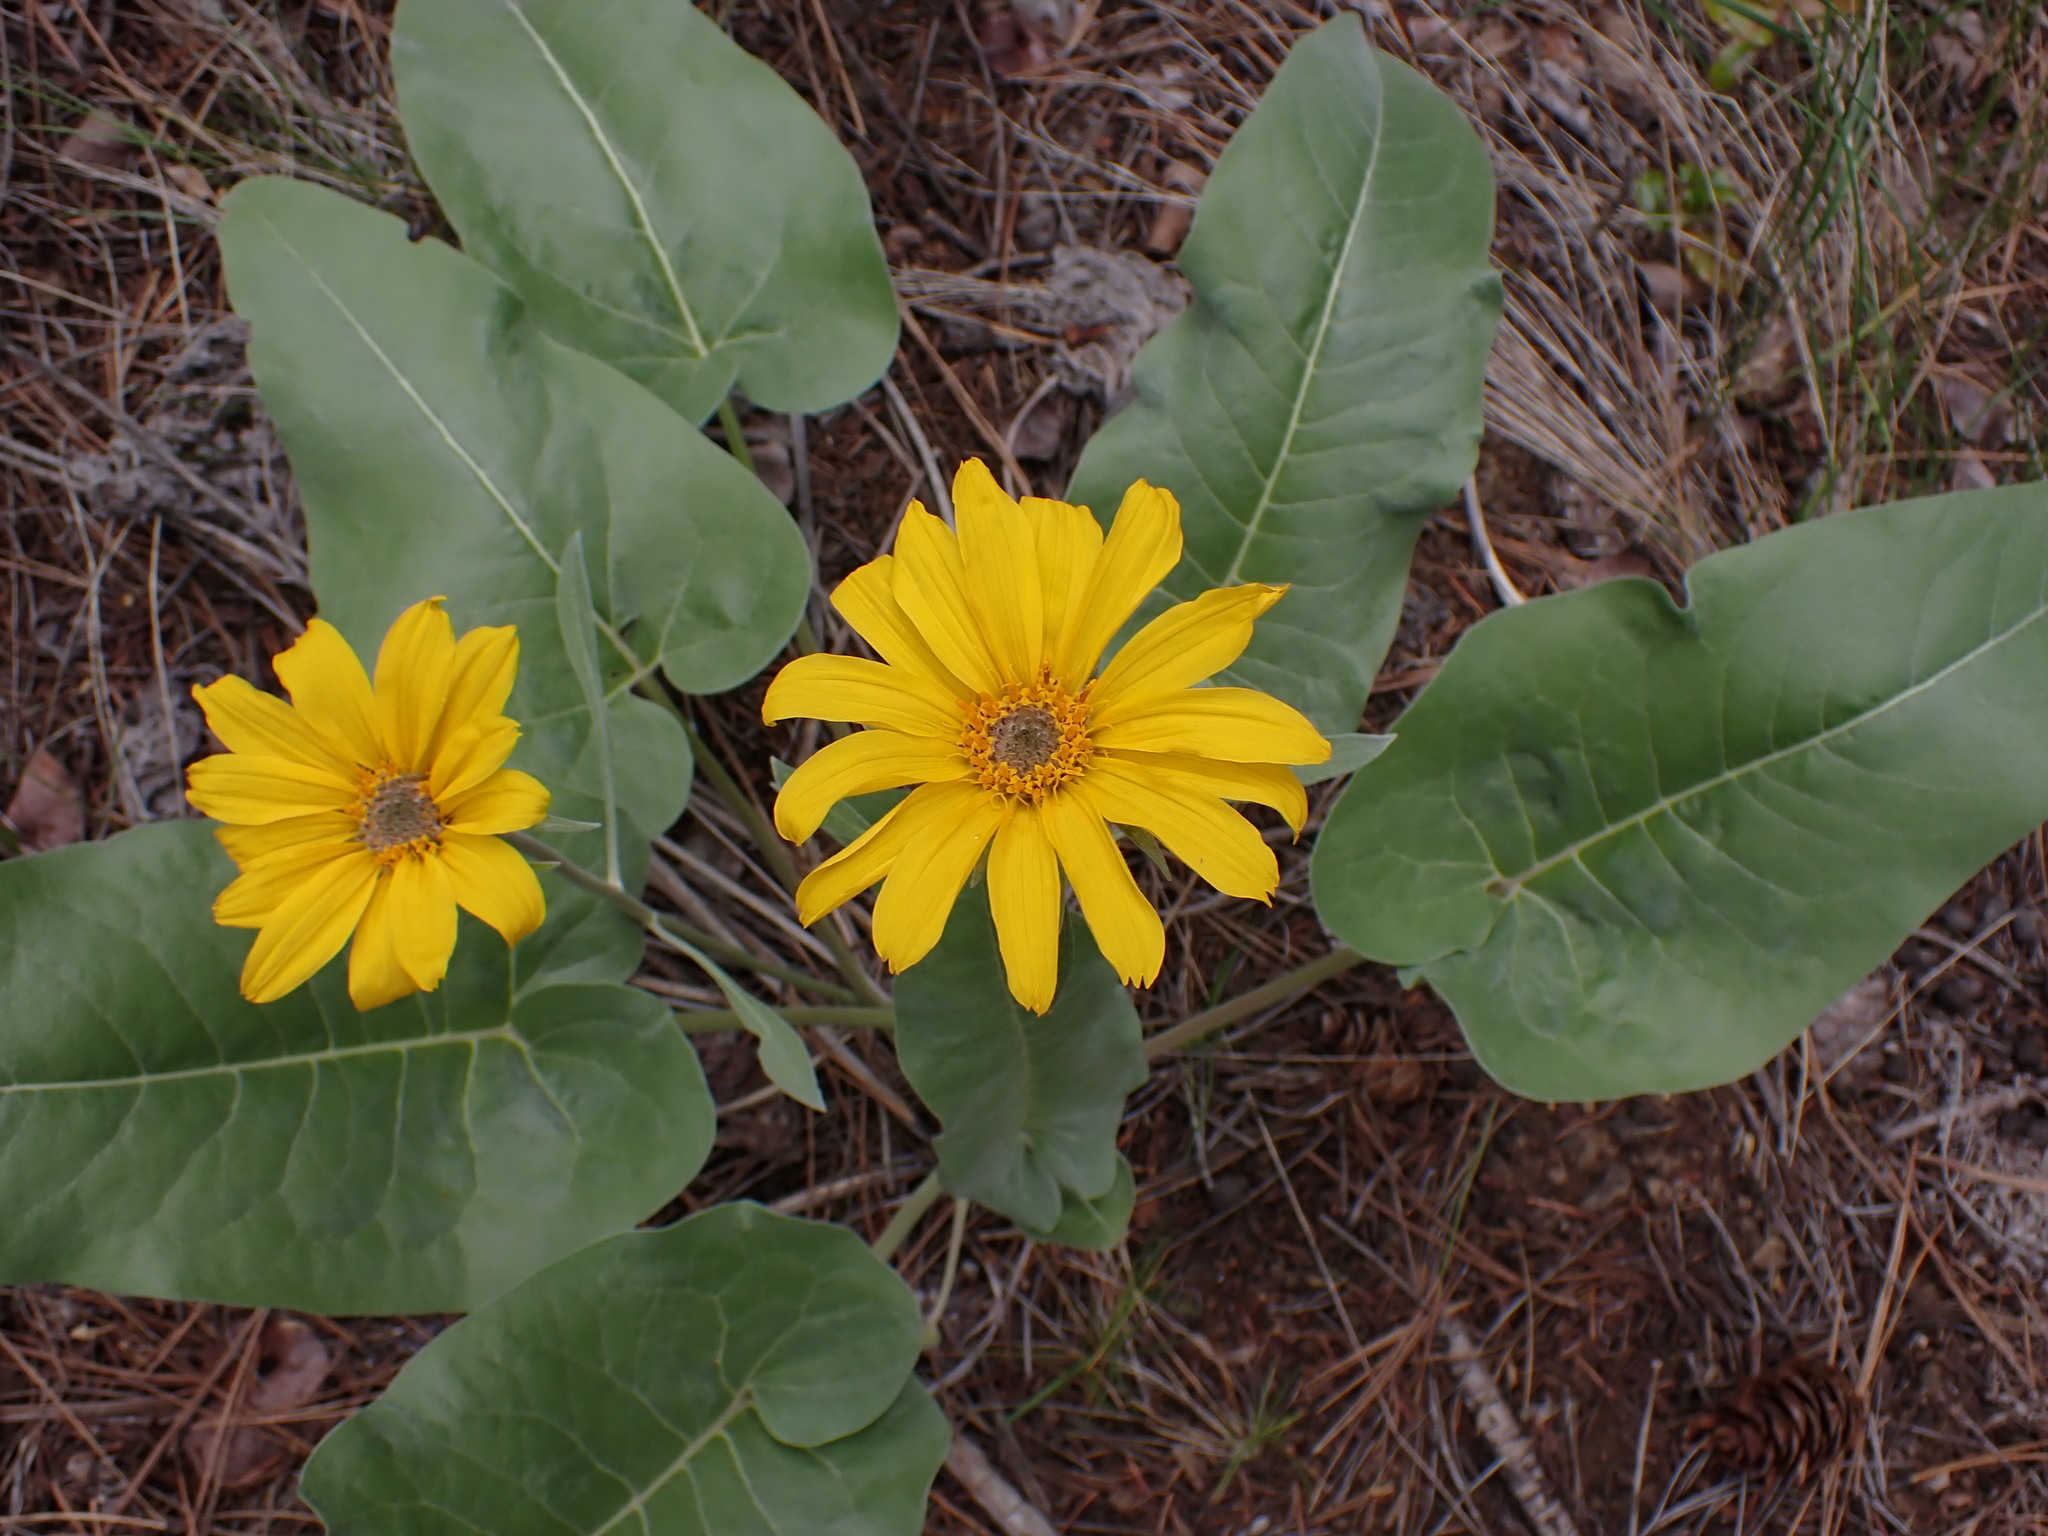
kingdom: Plantae
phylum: Tracheophyta
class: Magnoliopsida
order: Asterales
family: Asteraceae
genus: Wyethia
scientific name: Wyethia sagittata
